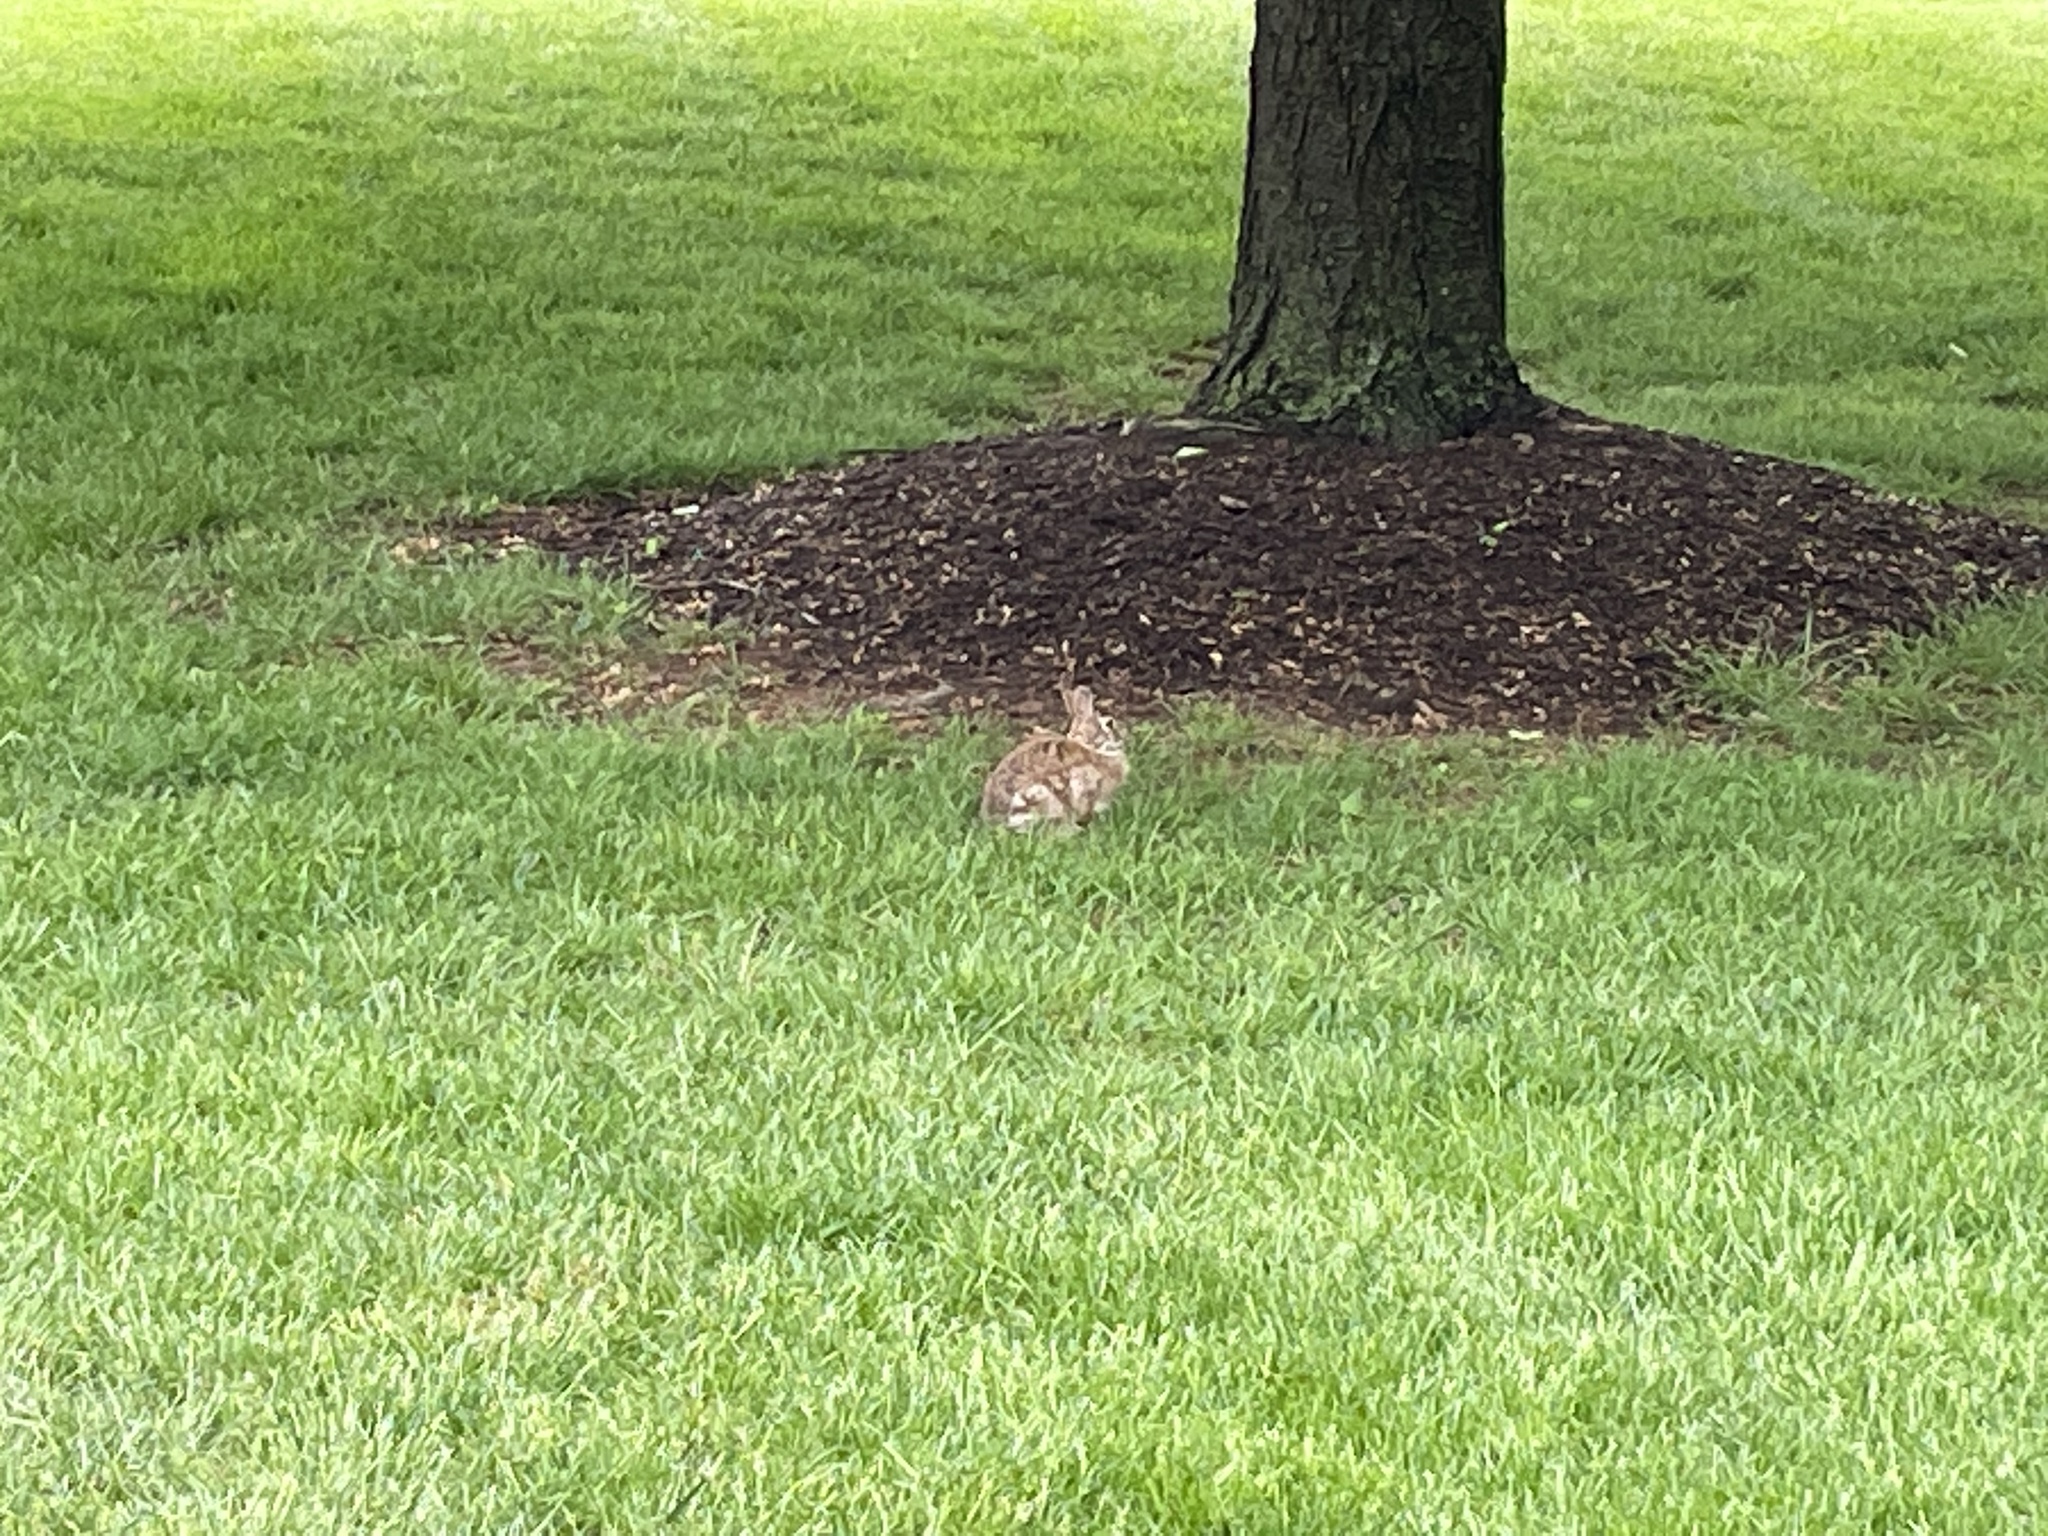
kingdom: Animalia
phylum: Chordata
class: Mammalia
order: Lagomorpha
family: Leporidae
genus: Sylvilagus
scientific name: Sylvilagus floridanus
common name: Eastern cottontail
